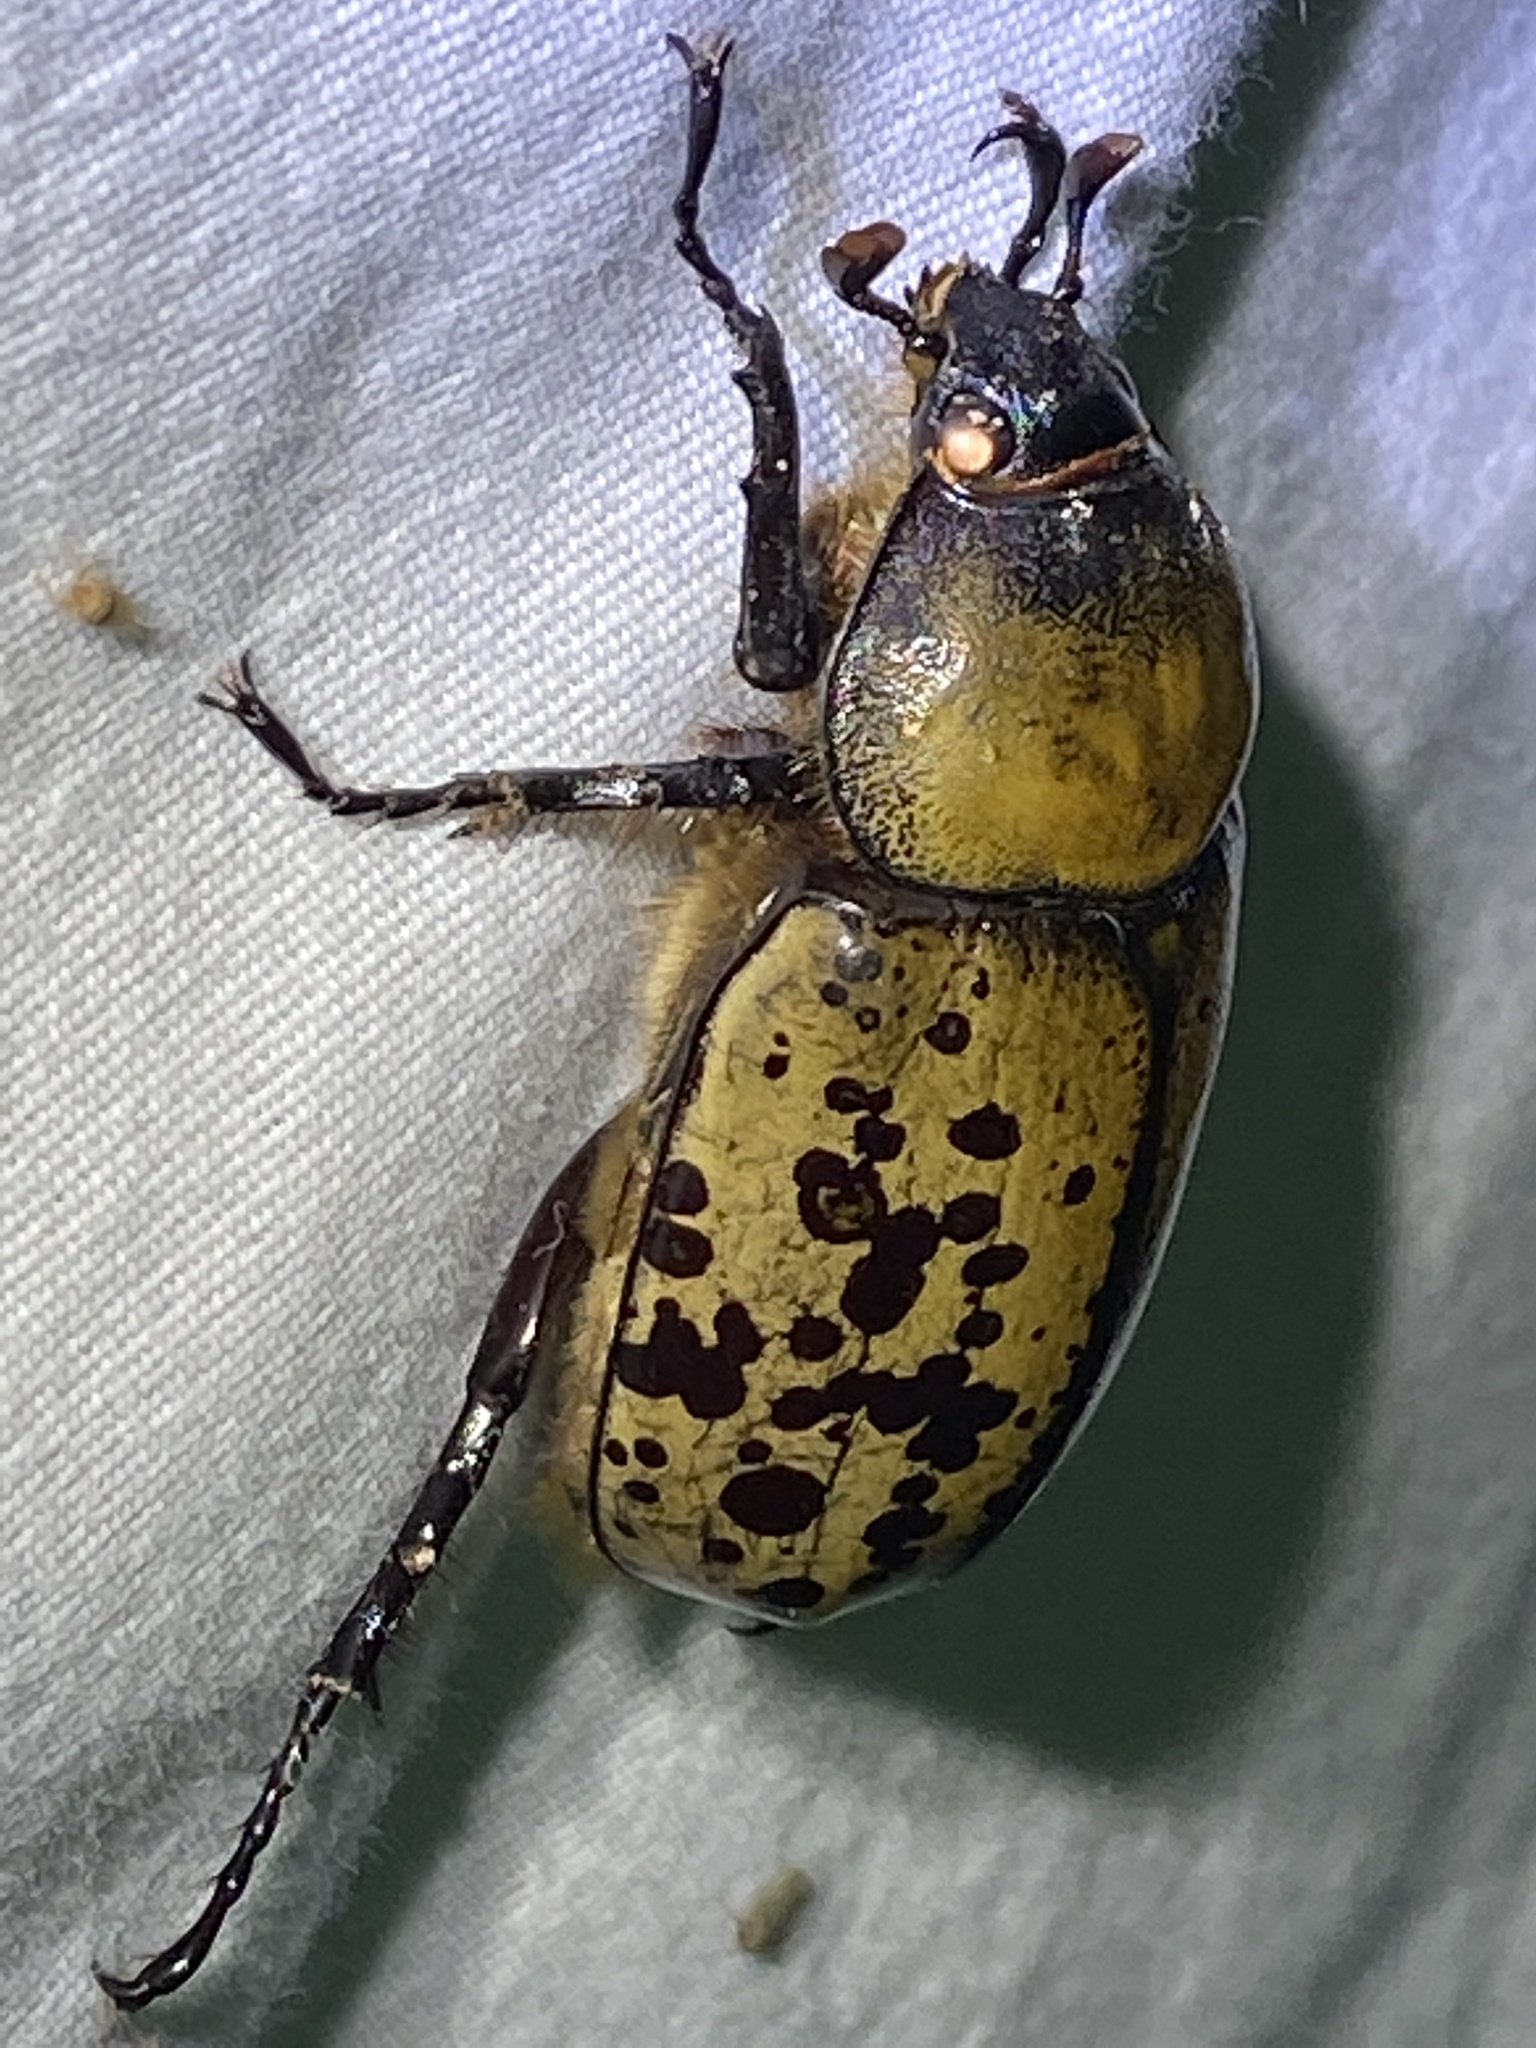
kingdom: Animalia
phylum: Arthropoda
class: Insecta
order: Coleoptera
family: Scarabaeidae
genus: Dynastes
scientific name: Dynastes tityus
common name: Eastern hercules beetle
